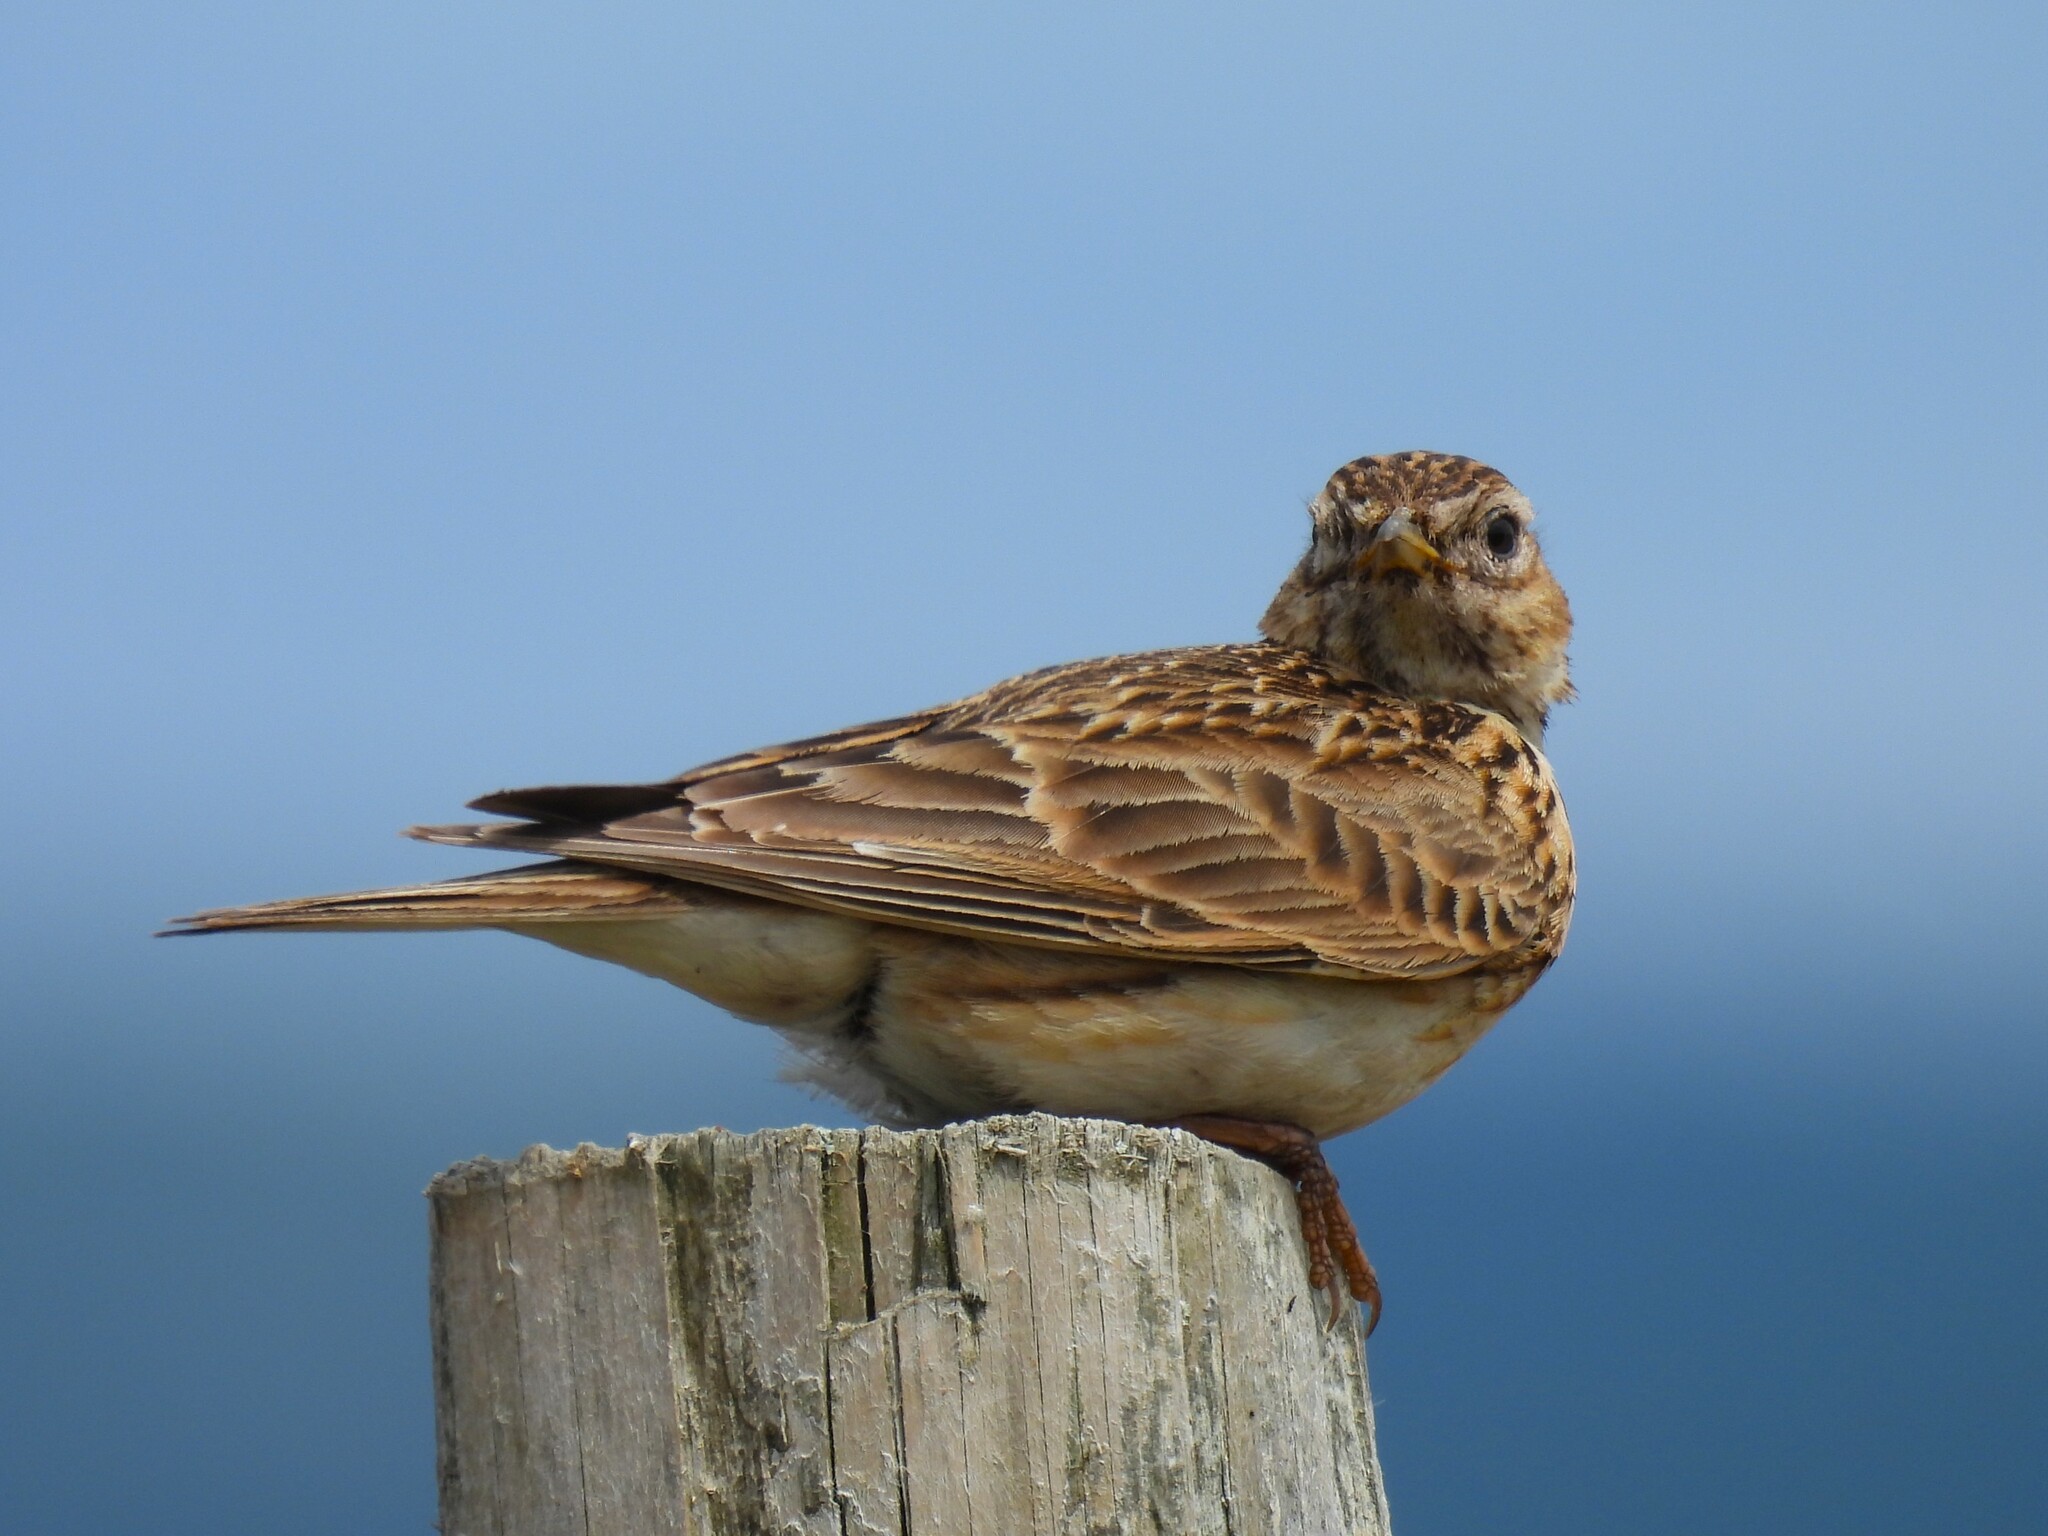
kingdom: Animalia
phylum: Chordata
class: Aves
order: Passeriformes
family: Alaudidae
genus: Alauda
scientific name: Alauda arvensis
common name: Eurasian skylark
